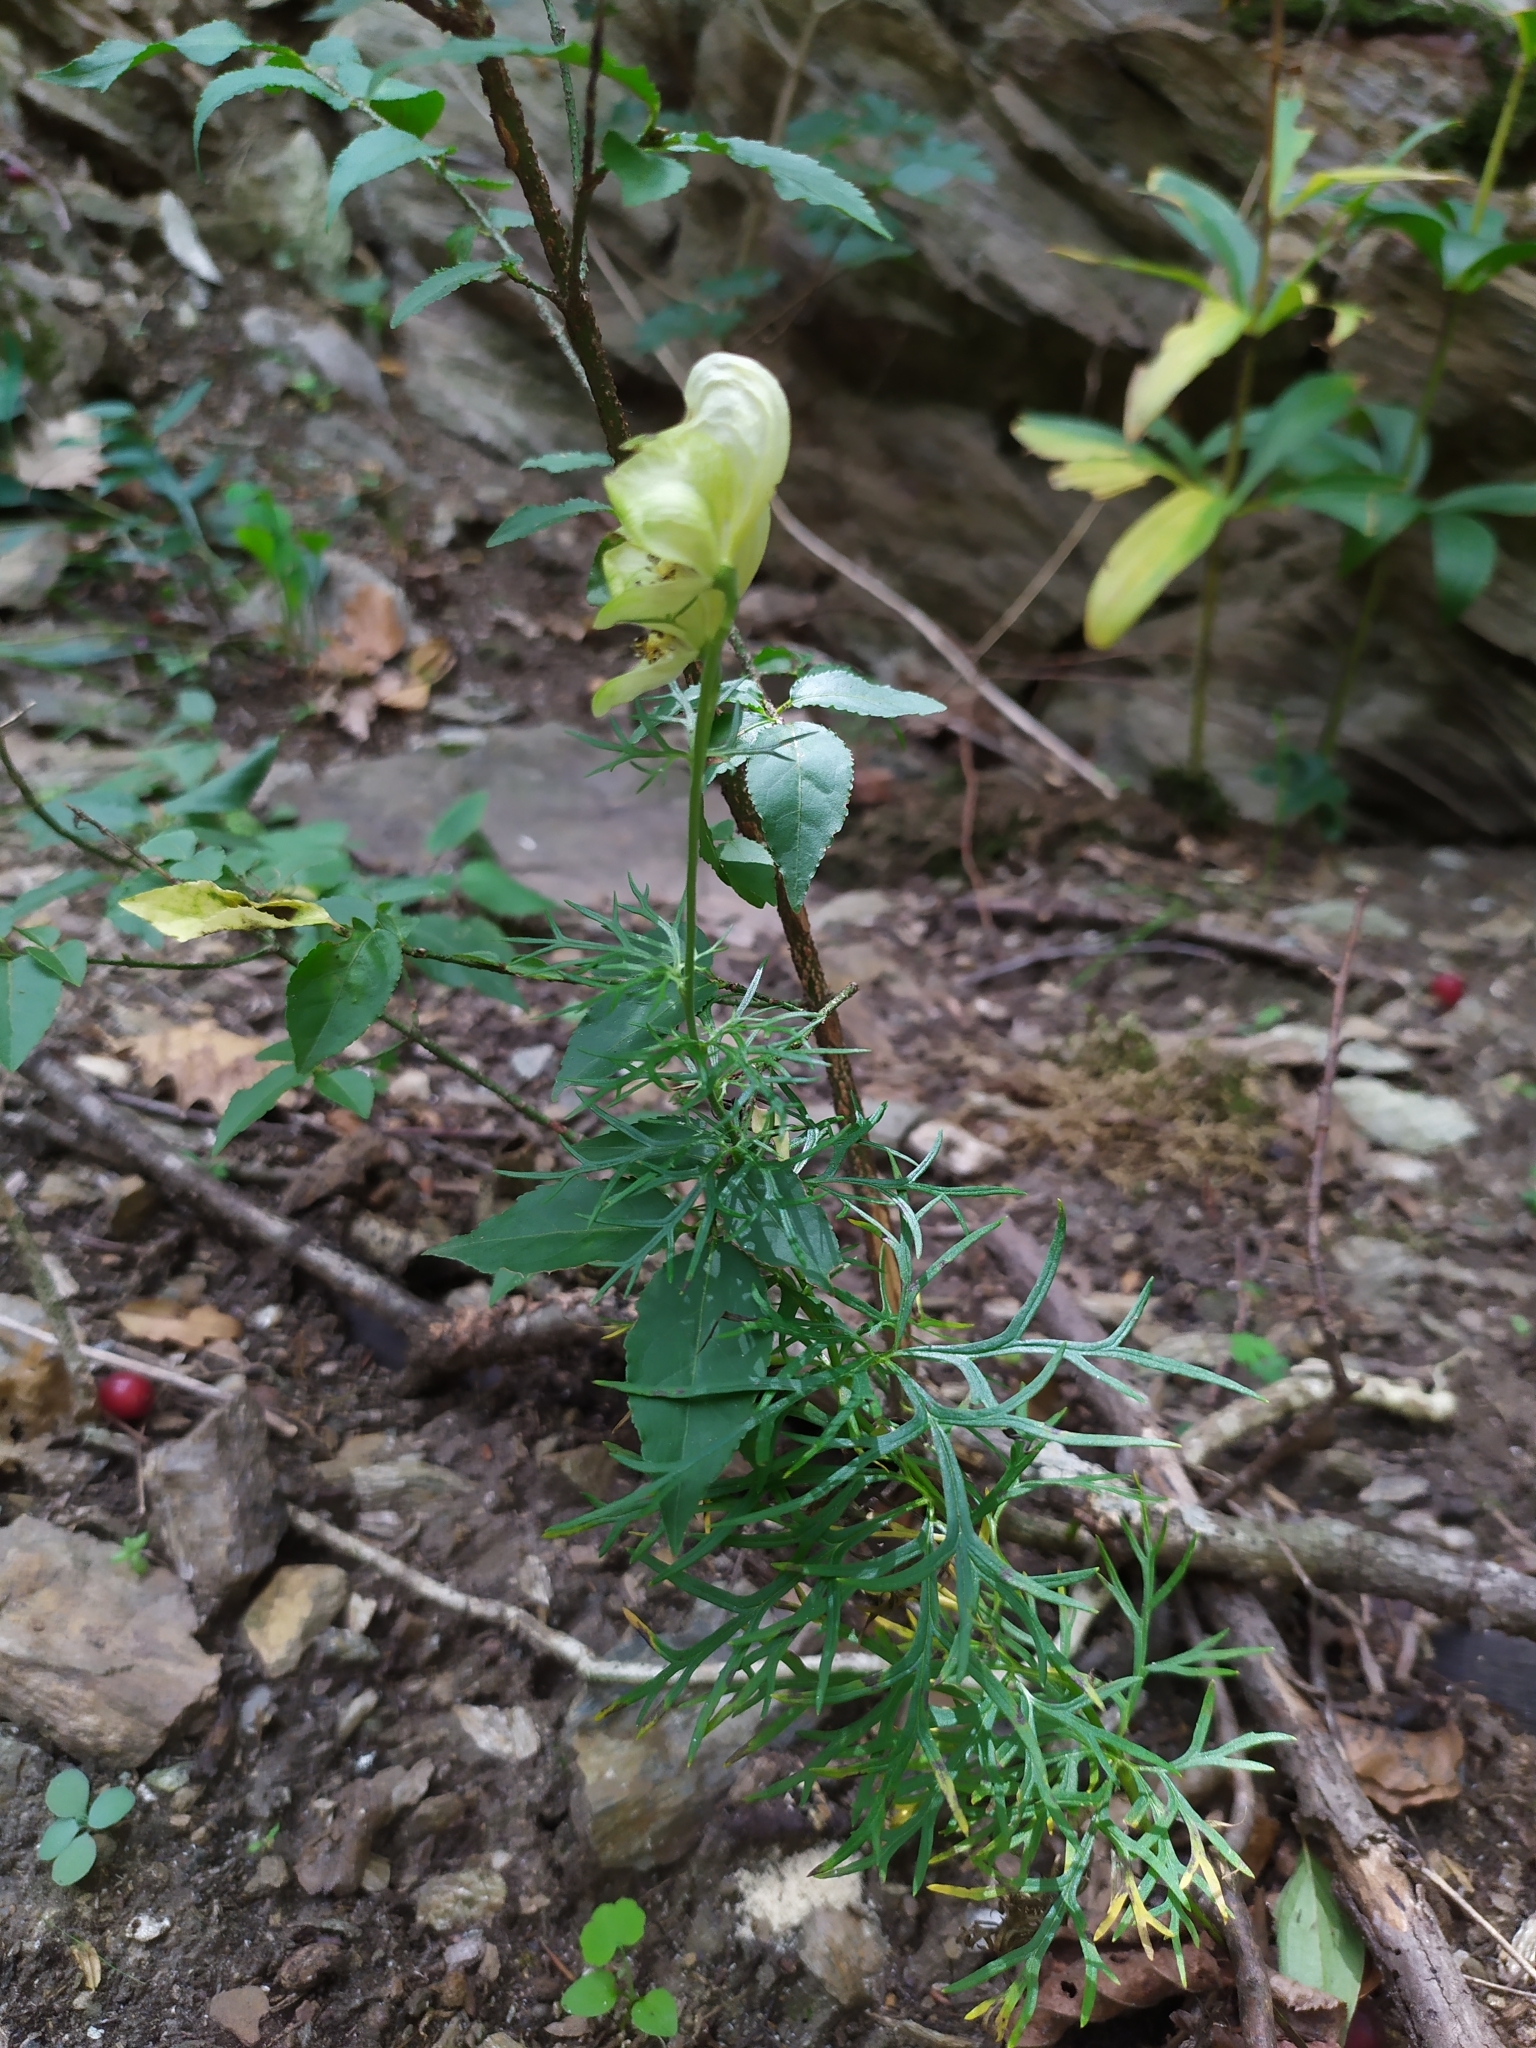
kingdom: Plantae
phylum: Tracheophyta
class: Magnoliopsida
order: Ranunculales
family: Ranunculaceae
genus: Aconitum
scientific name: Aconitum anthora
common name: Yellow monkshood
